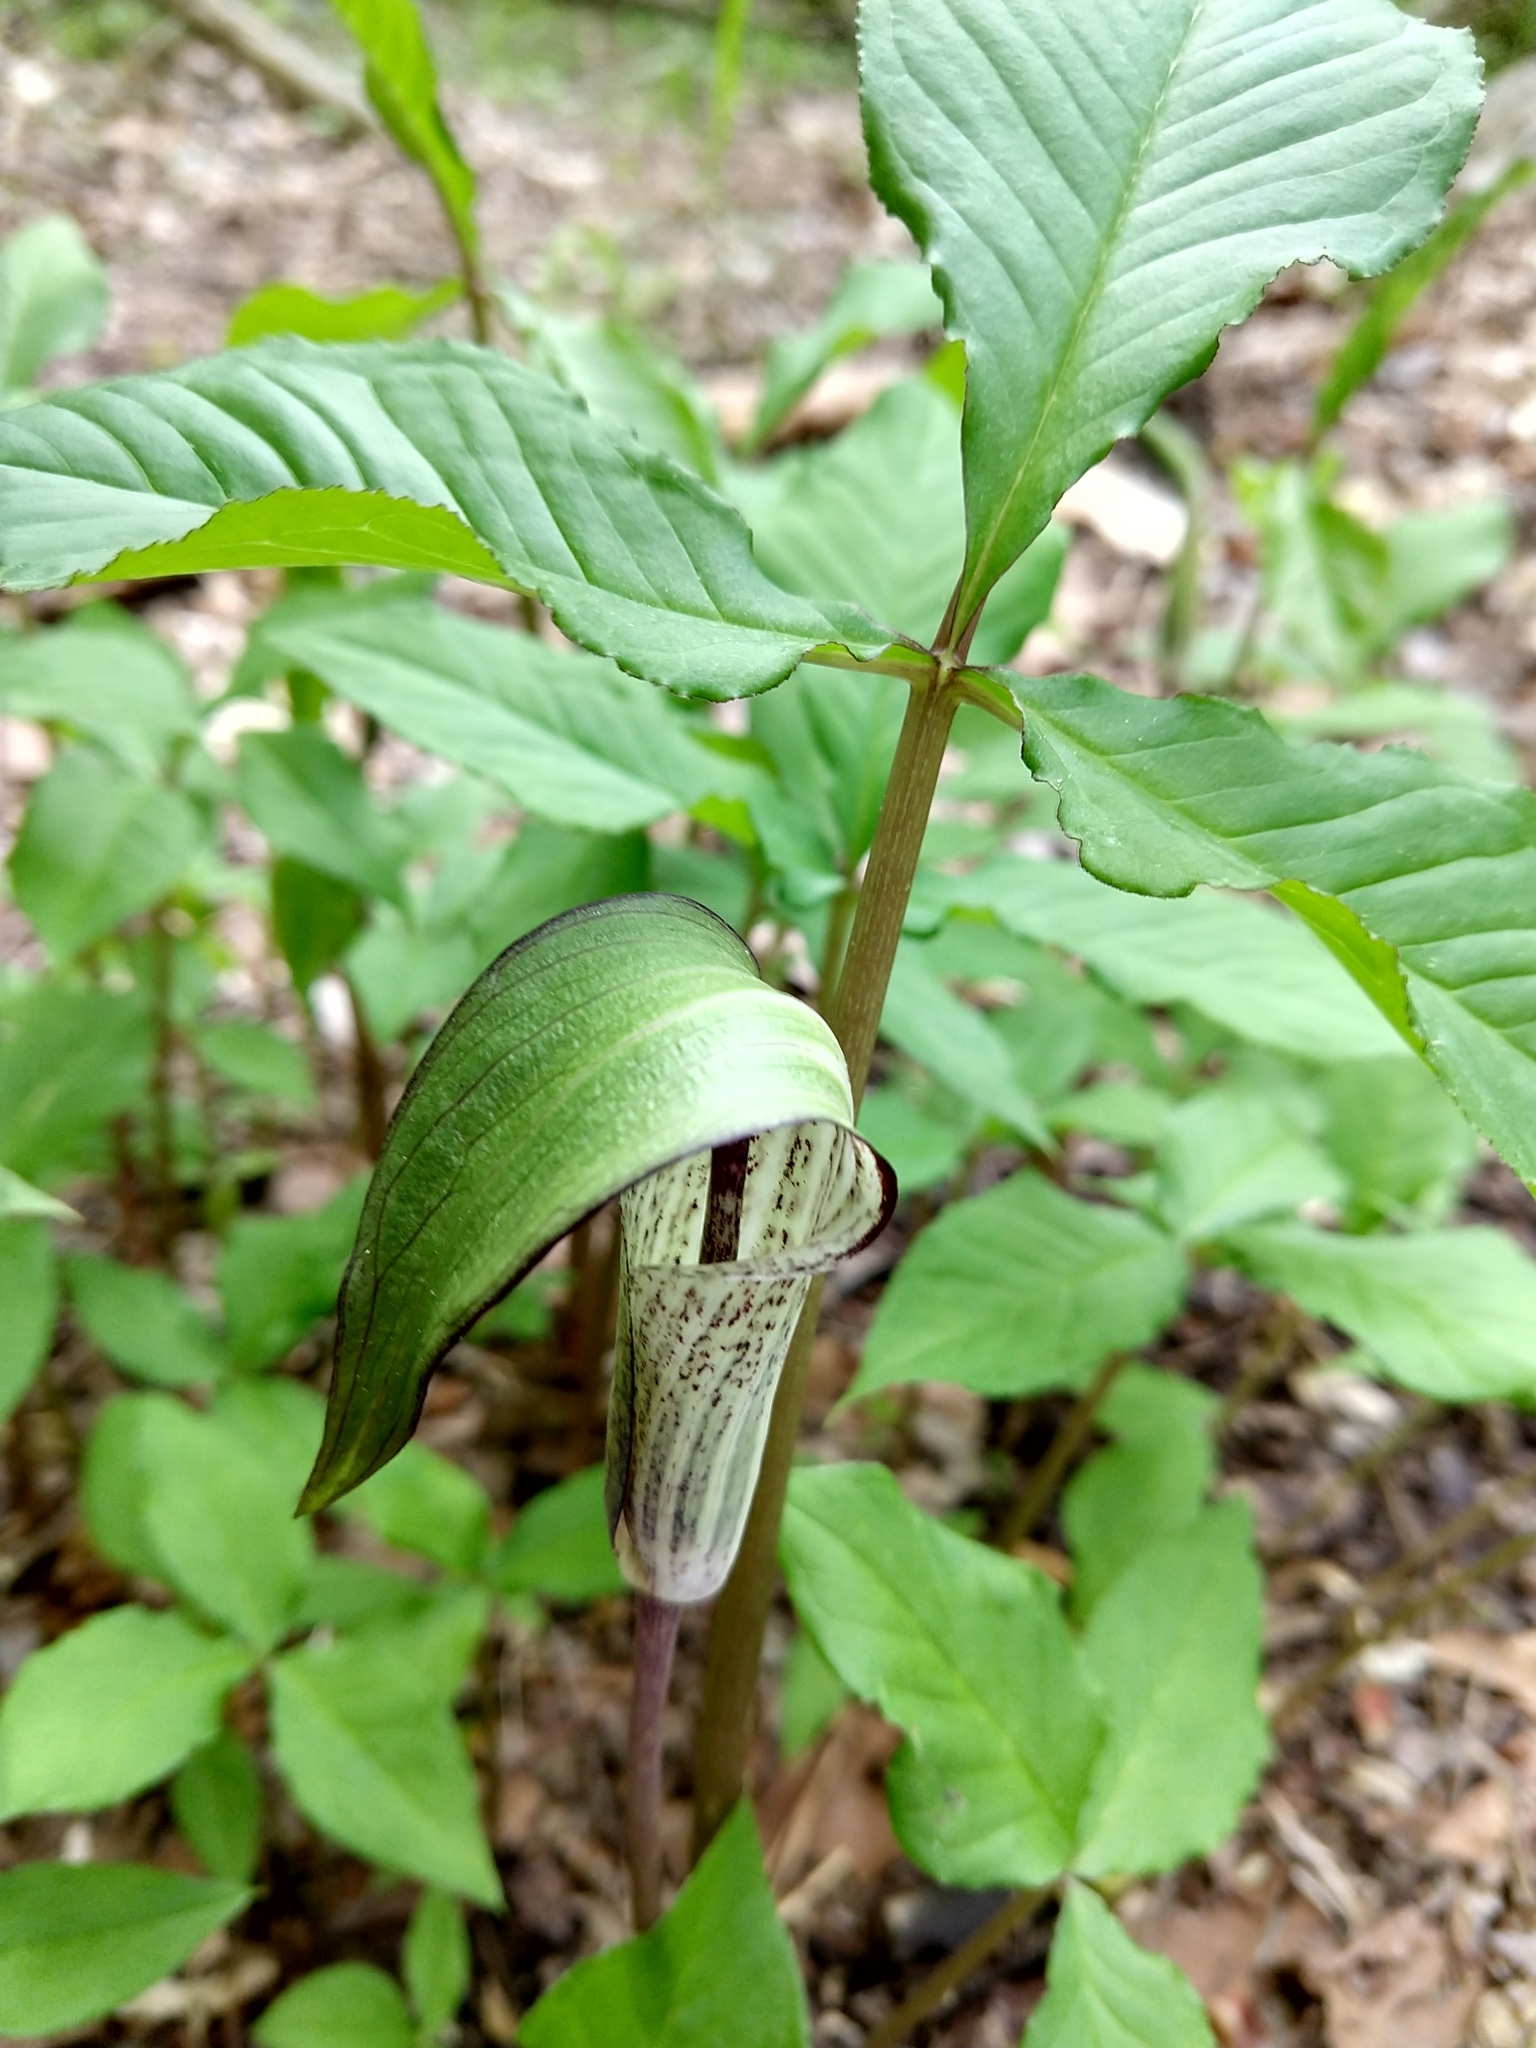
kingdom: Plantae
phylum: Tracheophyta
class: Liliopsida
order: Alismatales
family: Araceae
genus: Arisaema
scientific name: Arisaema triphyllum
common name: Jack-in-the-pulpit
